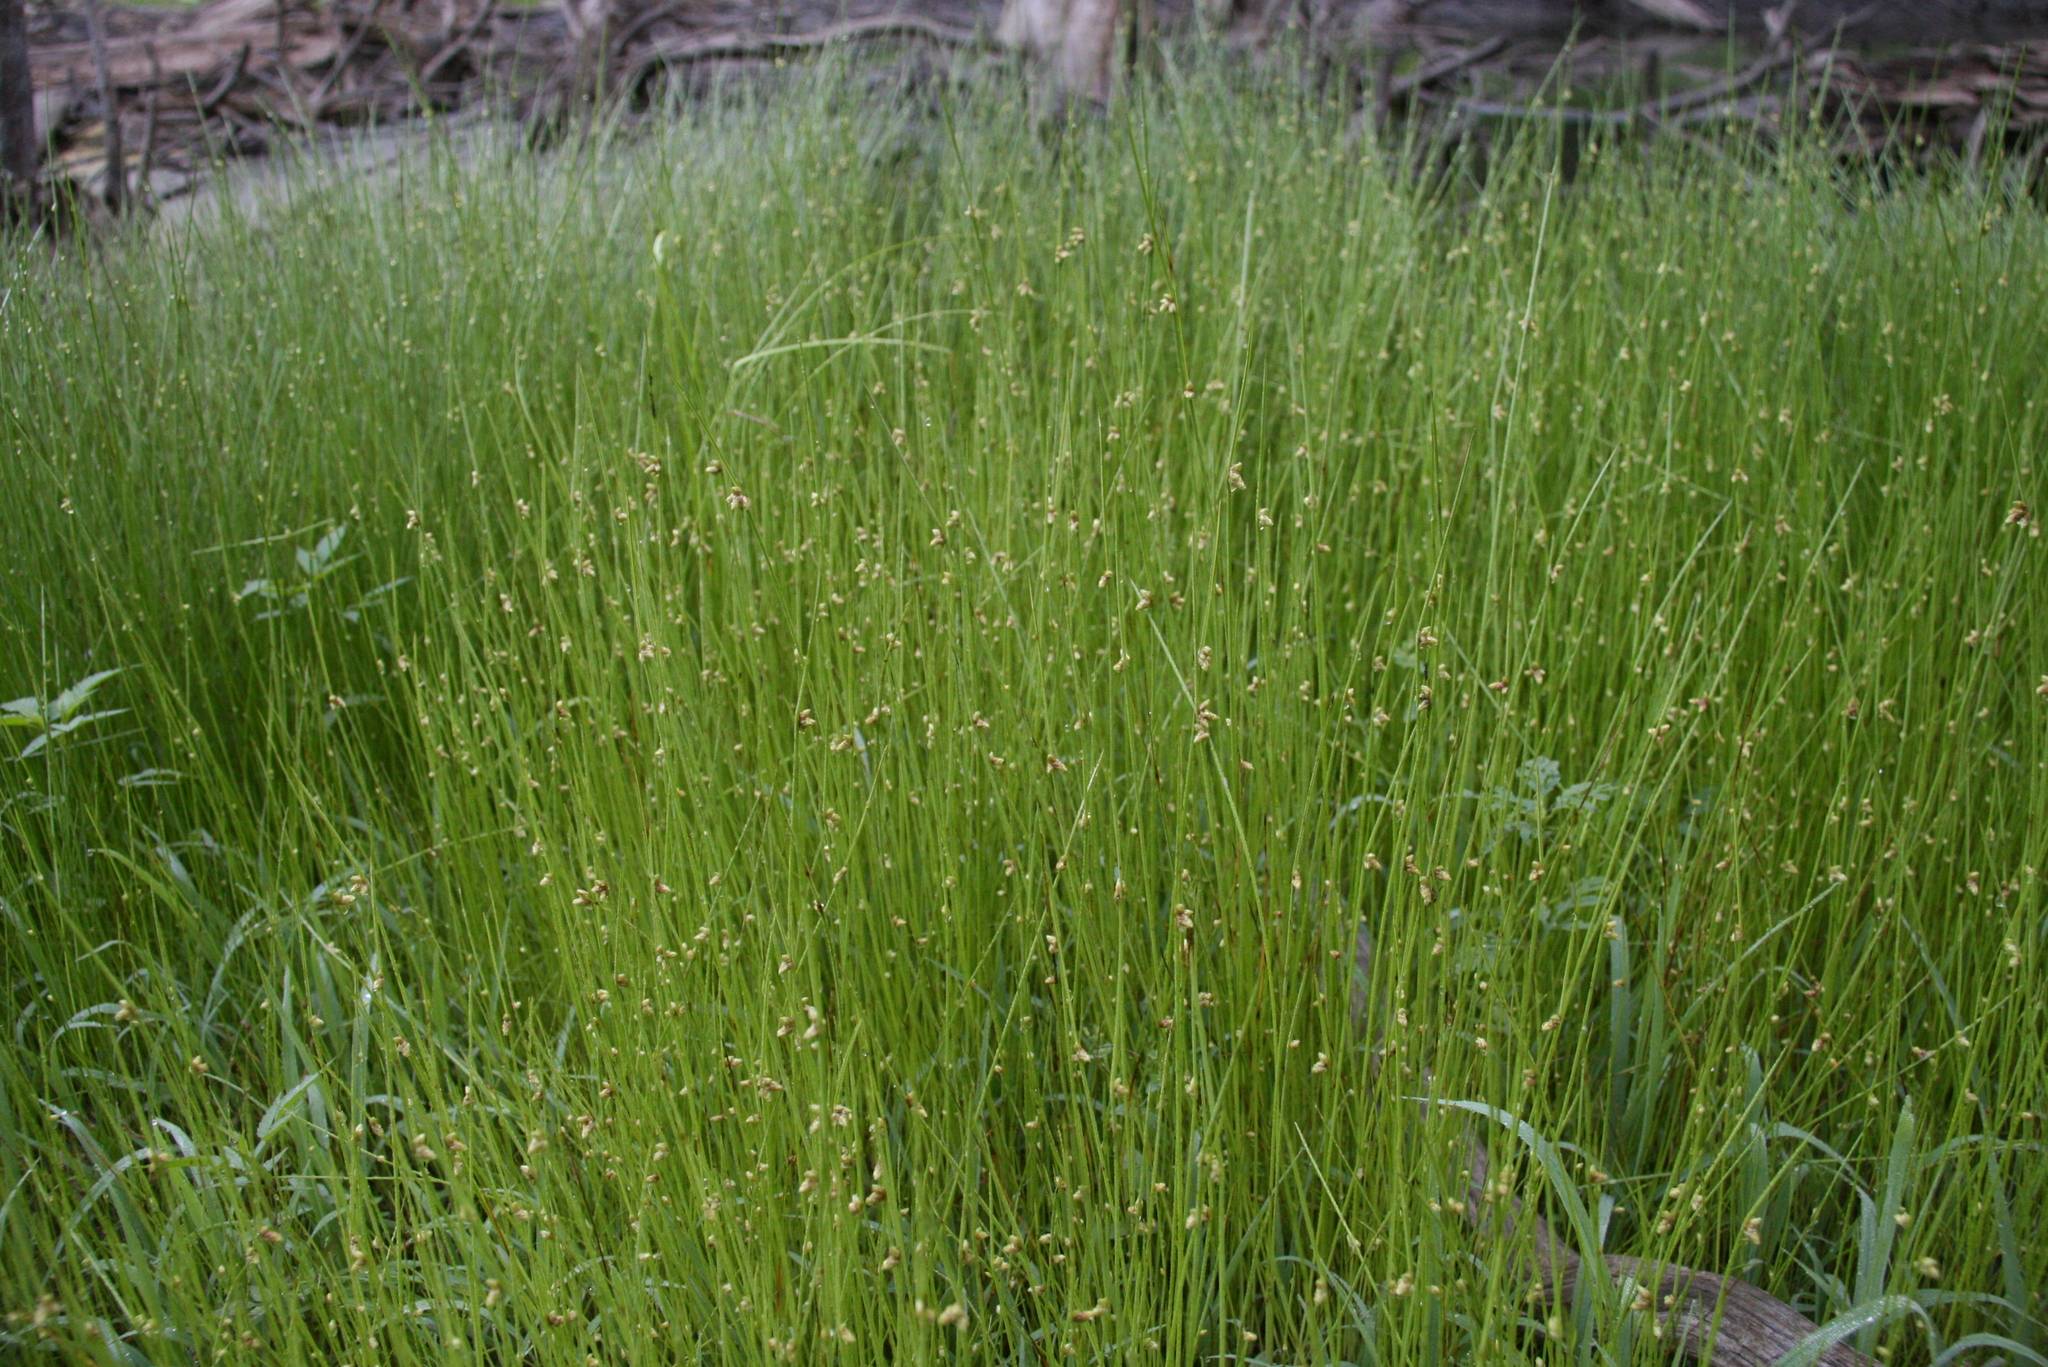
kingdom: Plantae
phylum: Tracheophyta
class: Liliopsida
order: Poales
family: Cyperaceae
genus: Schoenoplectiella
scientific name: Schoenoplectiella purshiana
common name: Weak-stalked bulrush
